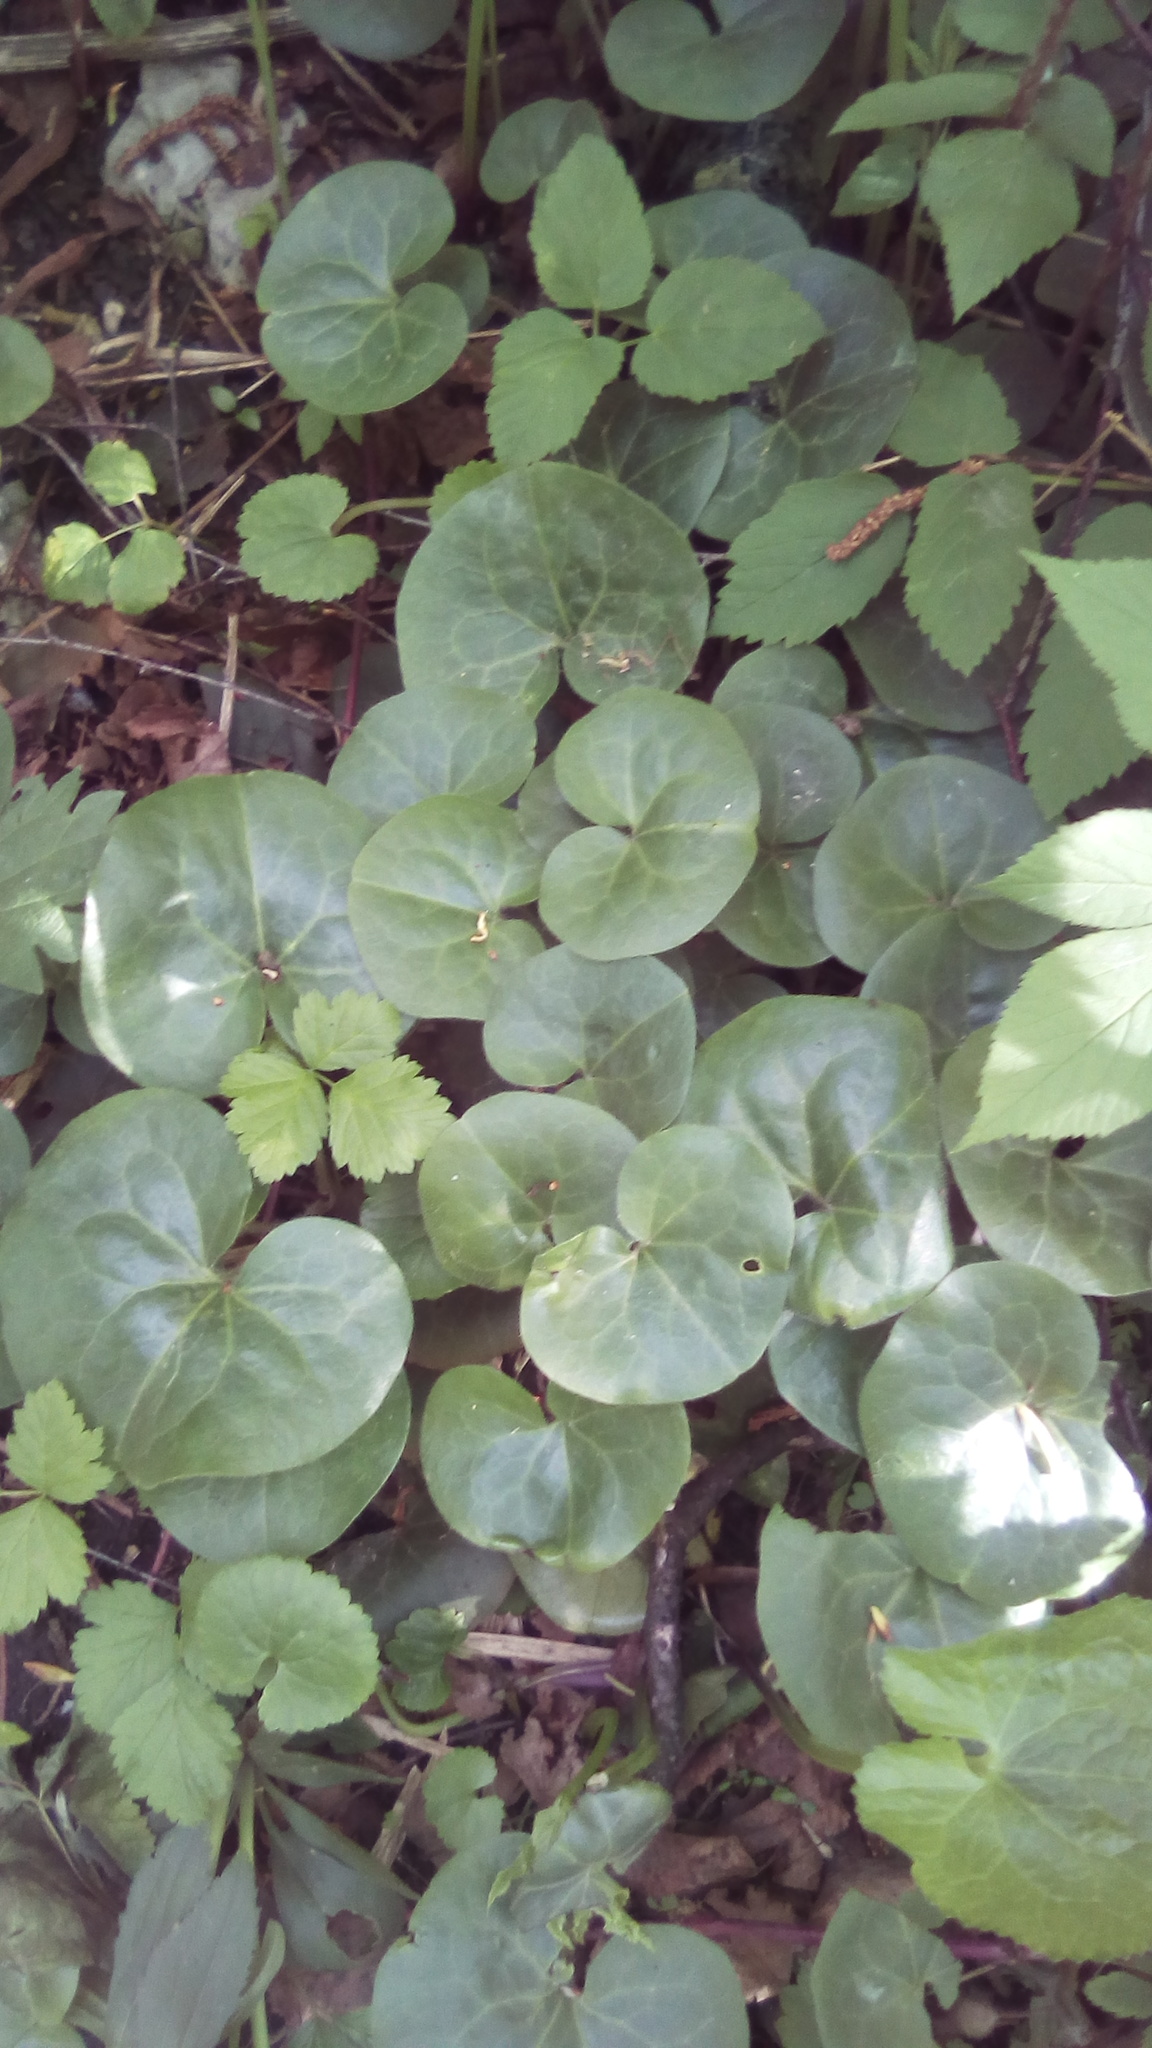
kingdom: Plantae
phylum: Tracheophyta
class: Magnoliopsida
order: Piperales
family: Aristolochiaceae
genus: Asarum
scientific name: Asarum europaeum
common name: Asarabacca
